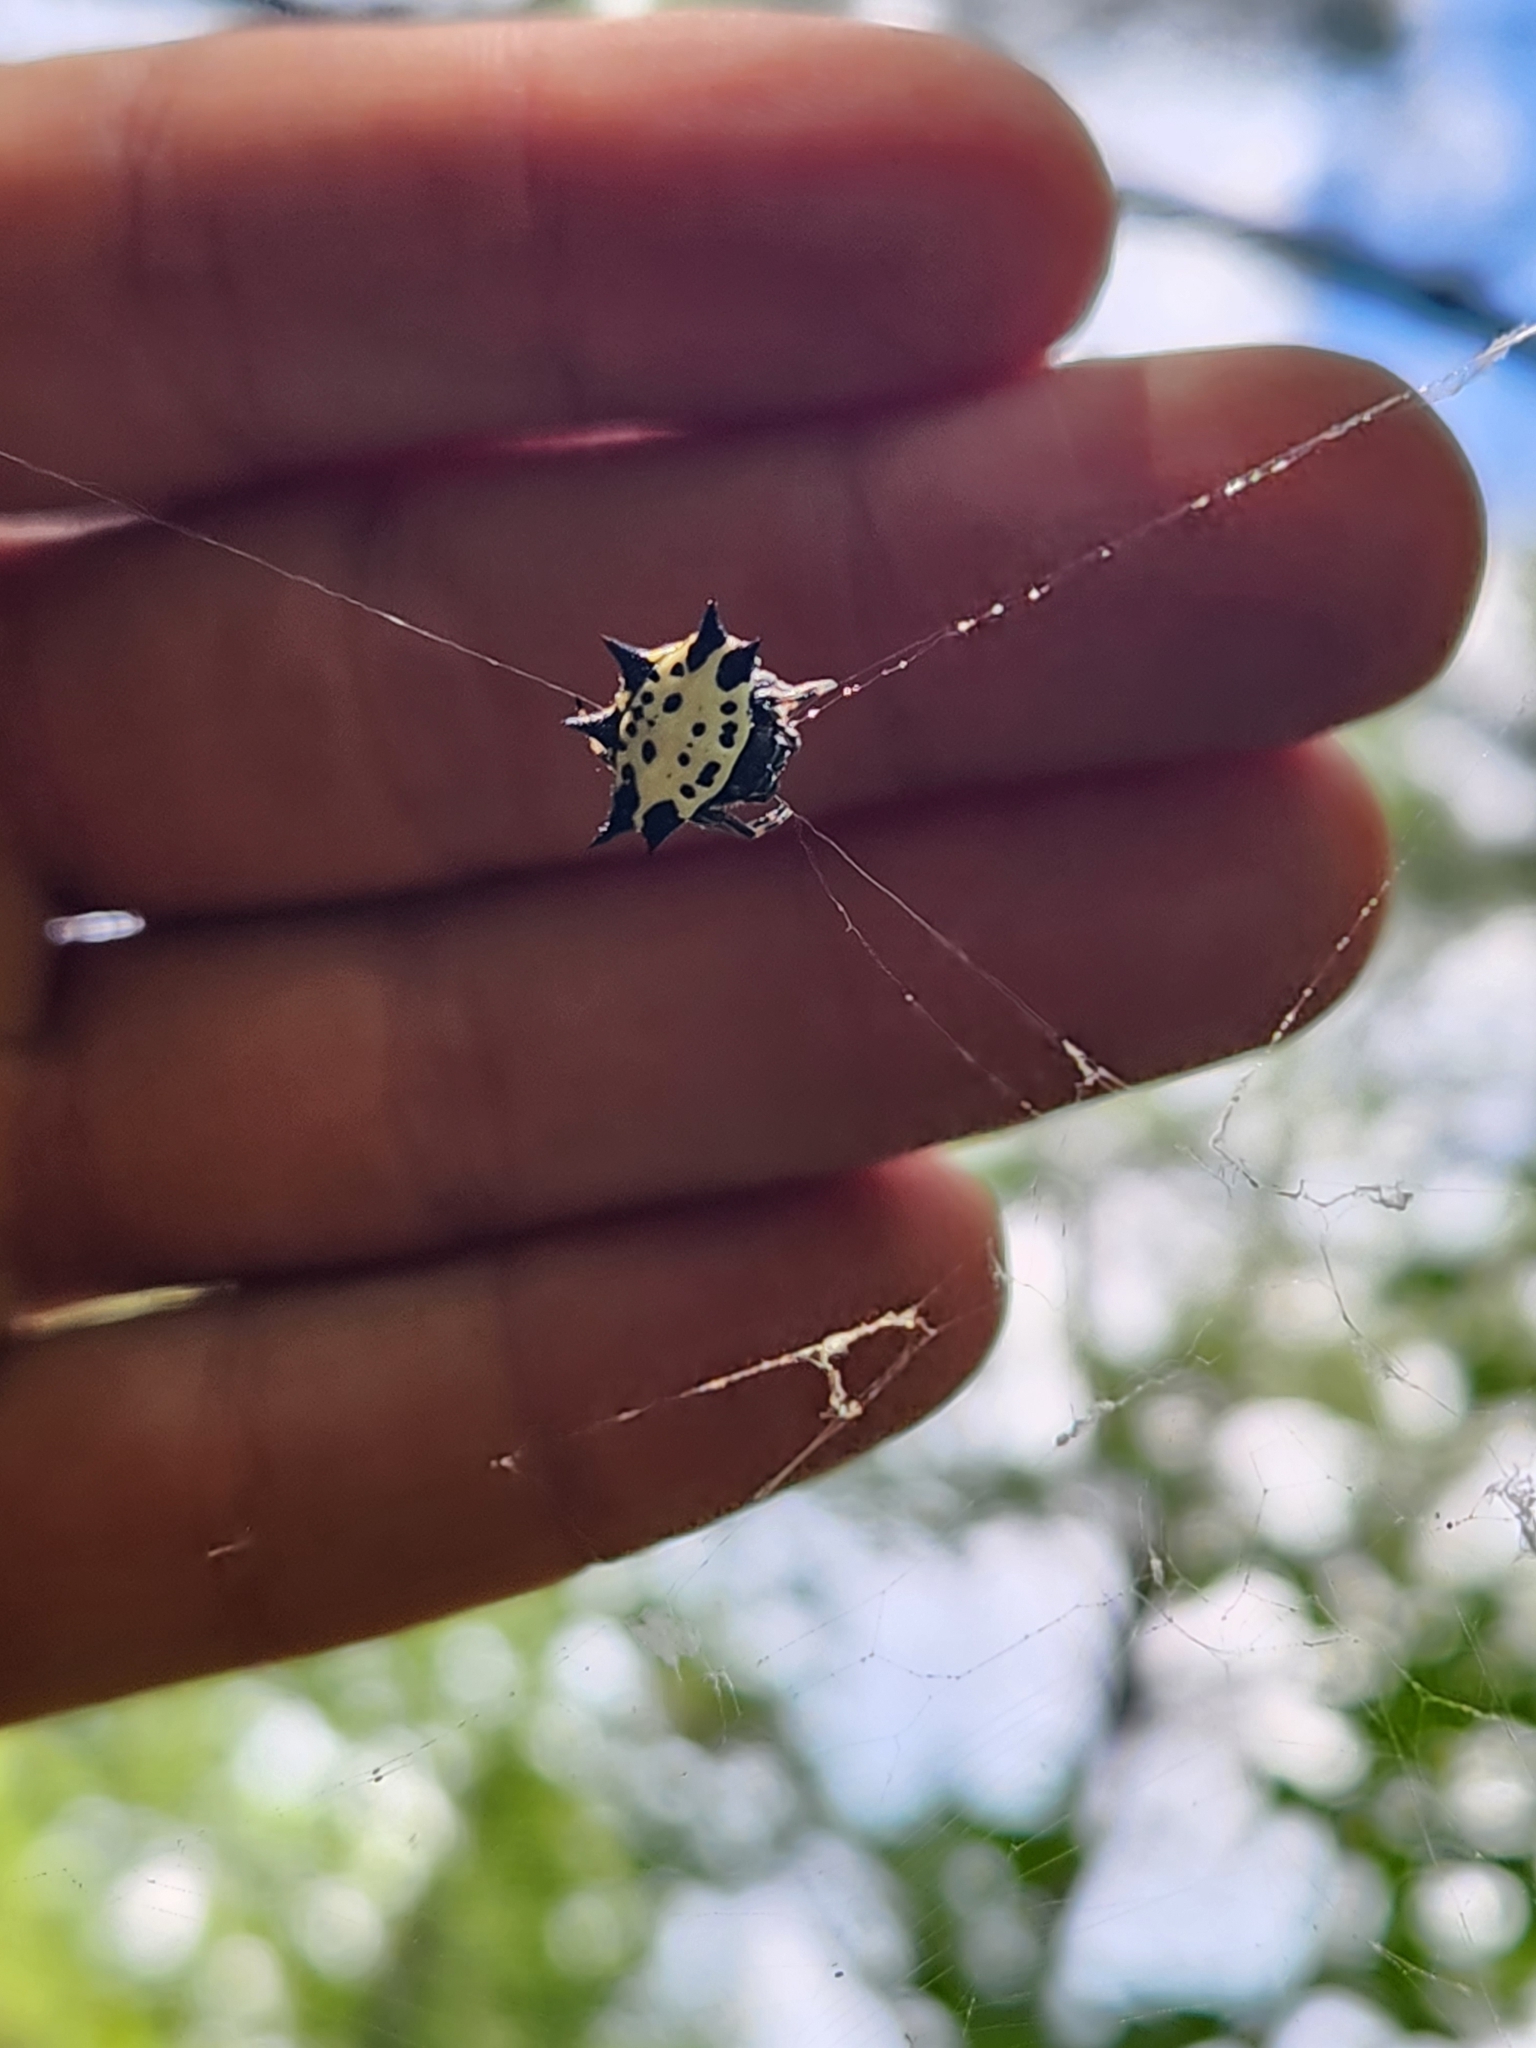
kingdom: Animalia
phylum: Arthropoda
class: Arachnida
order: Araneae
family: Araneidae
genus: Gasteracantha
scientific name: Gasteracantha cancriformis
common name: Orb weavers
